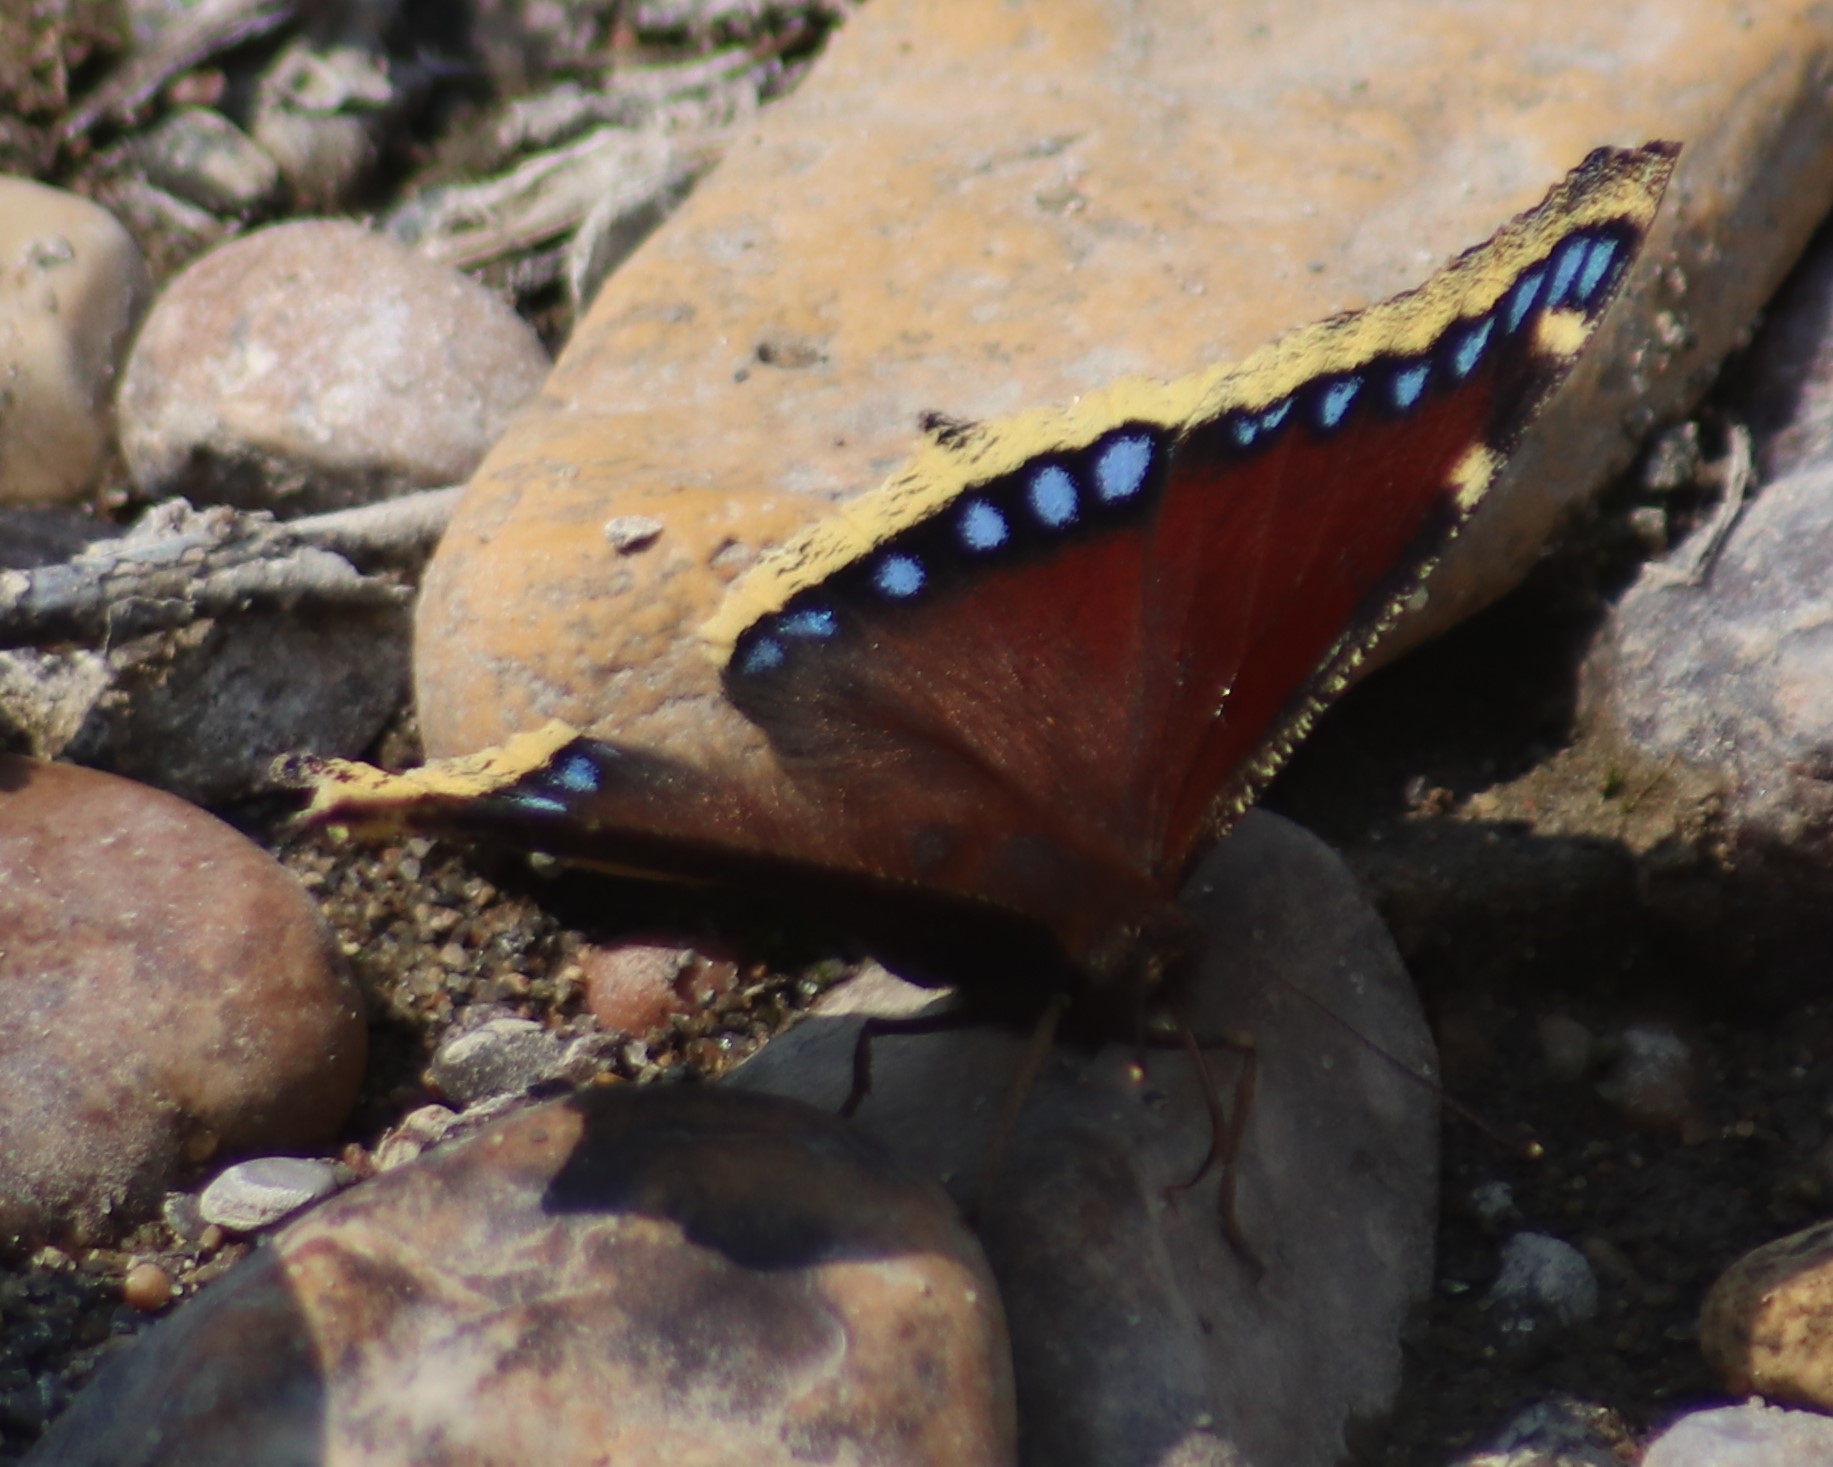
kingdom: Animalia
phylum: Arthropoda
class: Insecta
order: Lepidoptera
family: Nymphalidae
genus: Nymphalis
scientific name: Nymphalis antiopa
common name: Camberwell beauty
